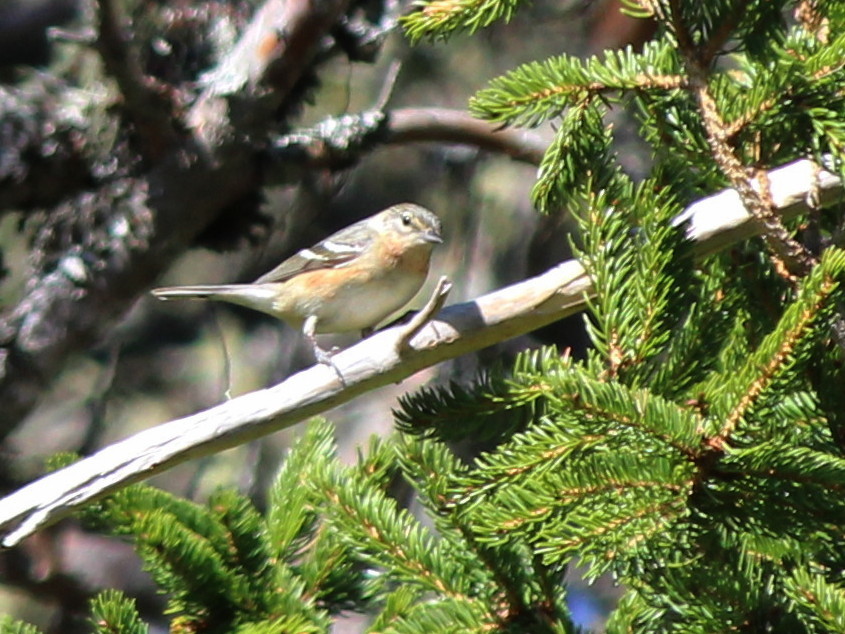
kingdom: Animalia
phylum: Chordata
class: Aves
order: Passeriformes
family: Parulidae
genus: Setophaga
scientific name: Setophaga castanea
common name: Bay-breasted warbler
